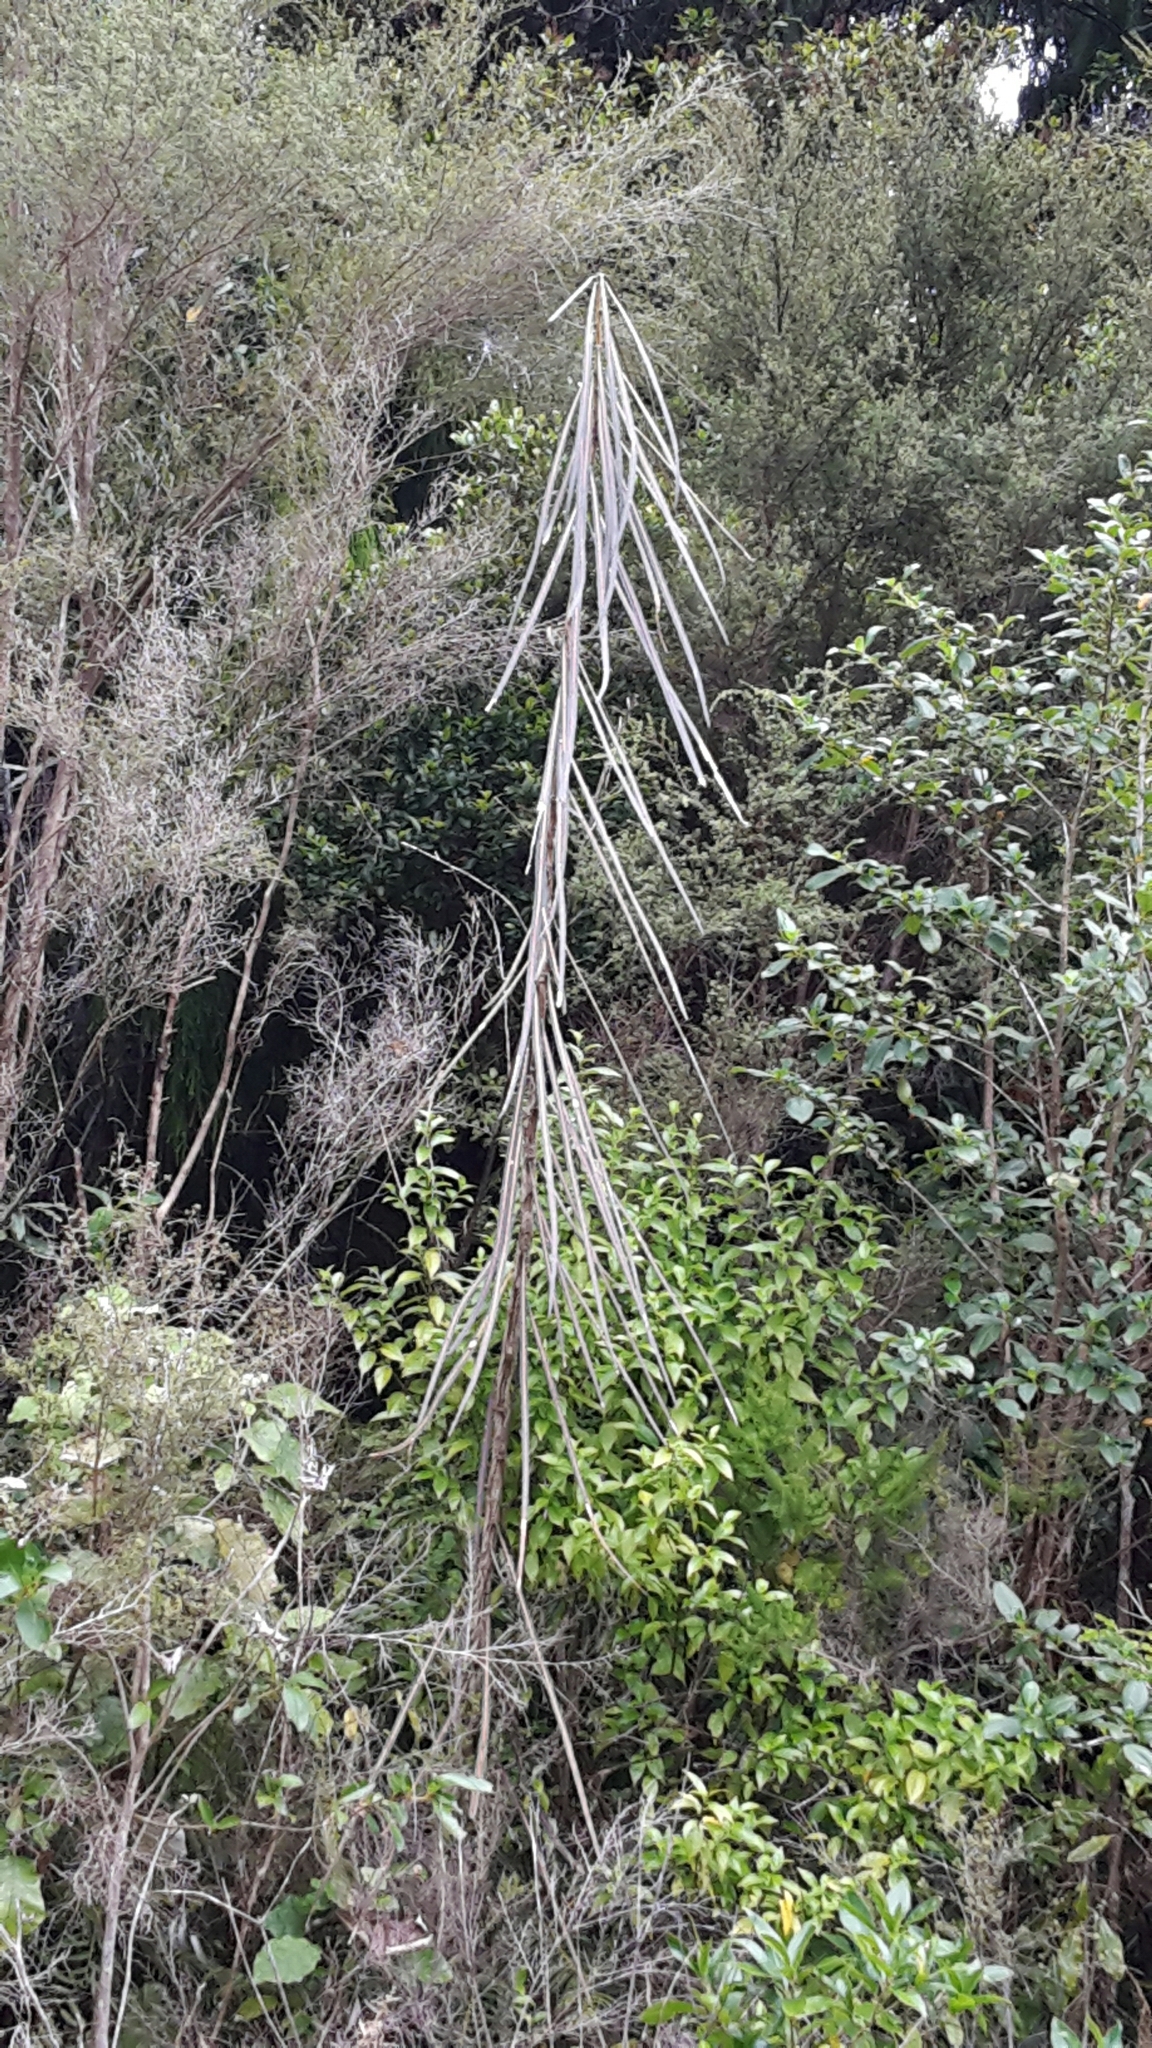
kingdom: Plantae
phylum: Tracheophyta
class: Magnoliopsida
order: Apiales
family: Araliaceae
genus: Pseudopanax
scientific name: Pseudopanax crassifolius
